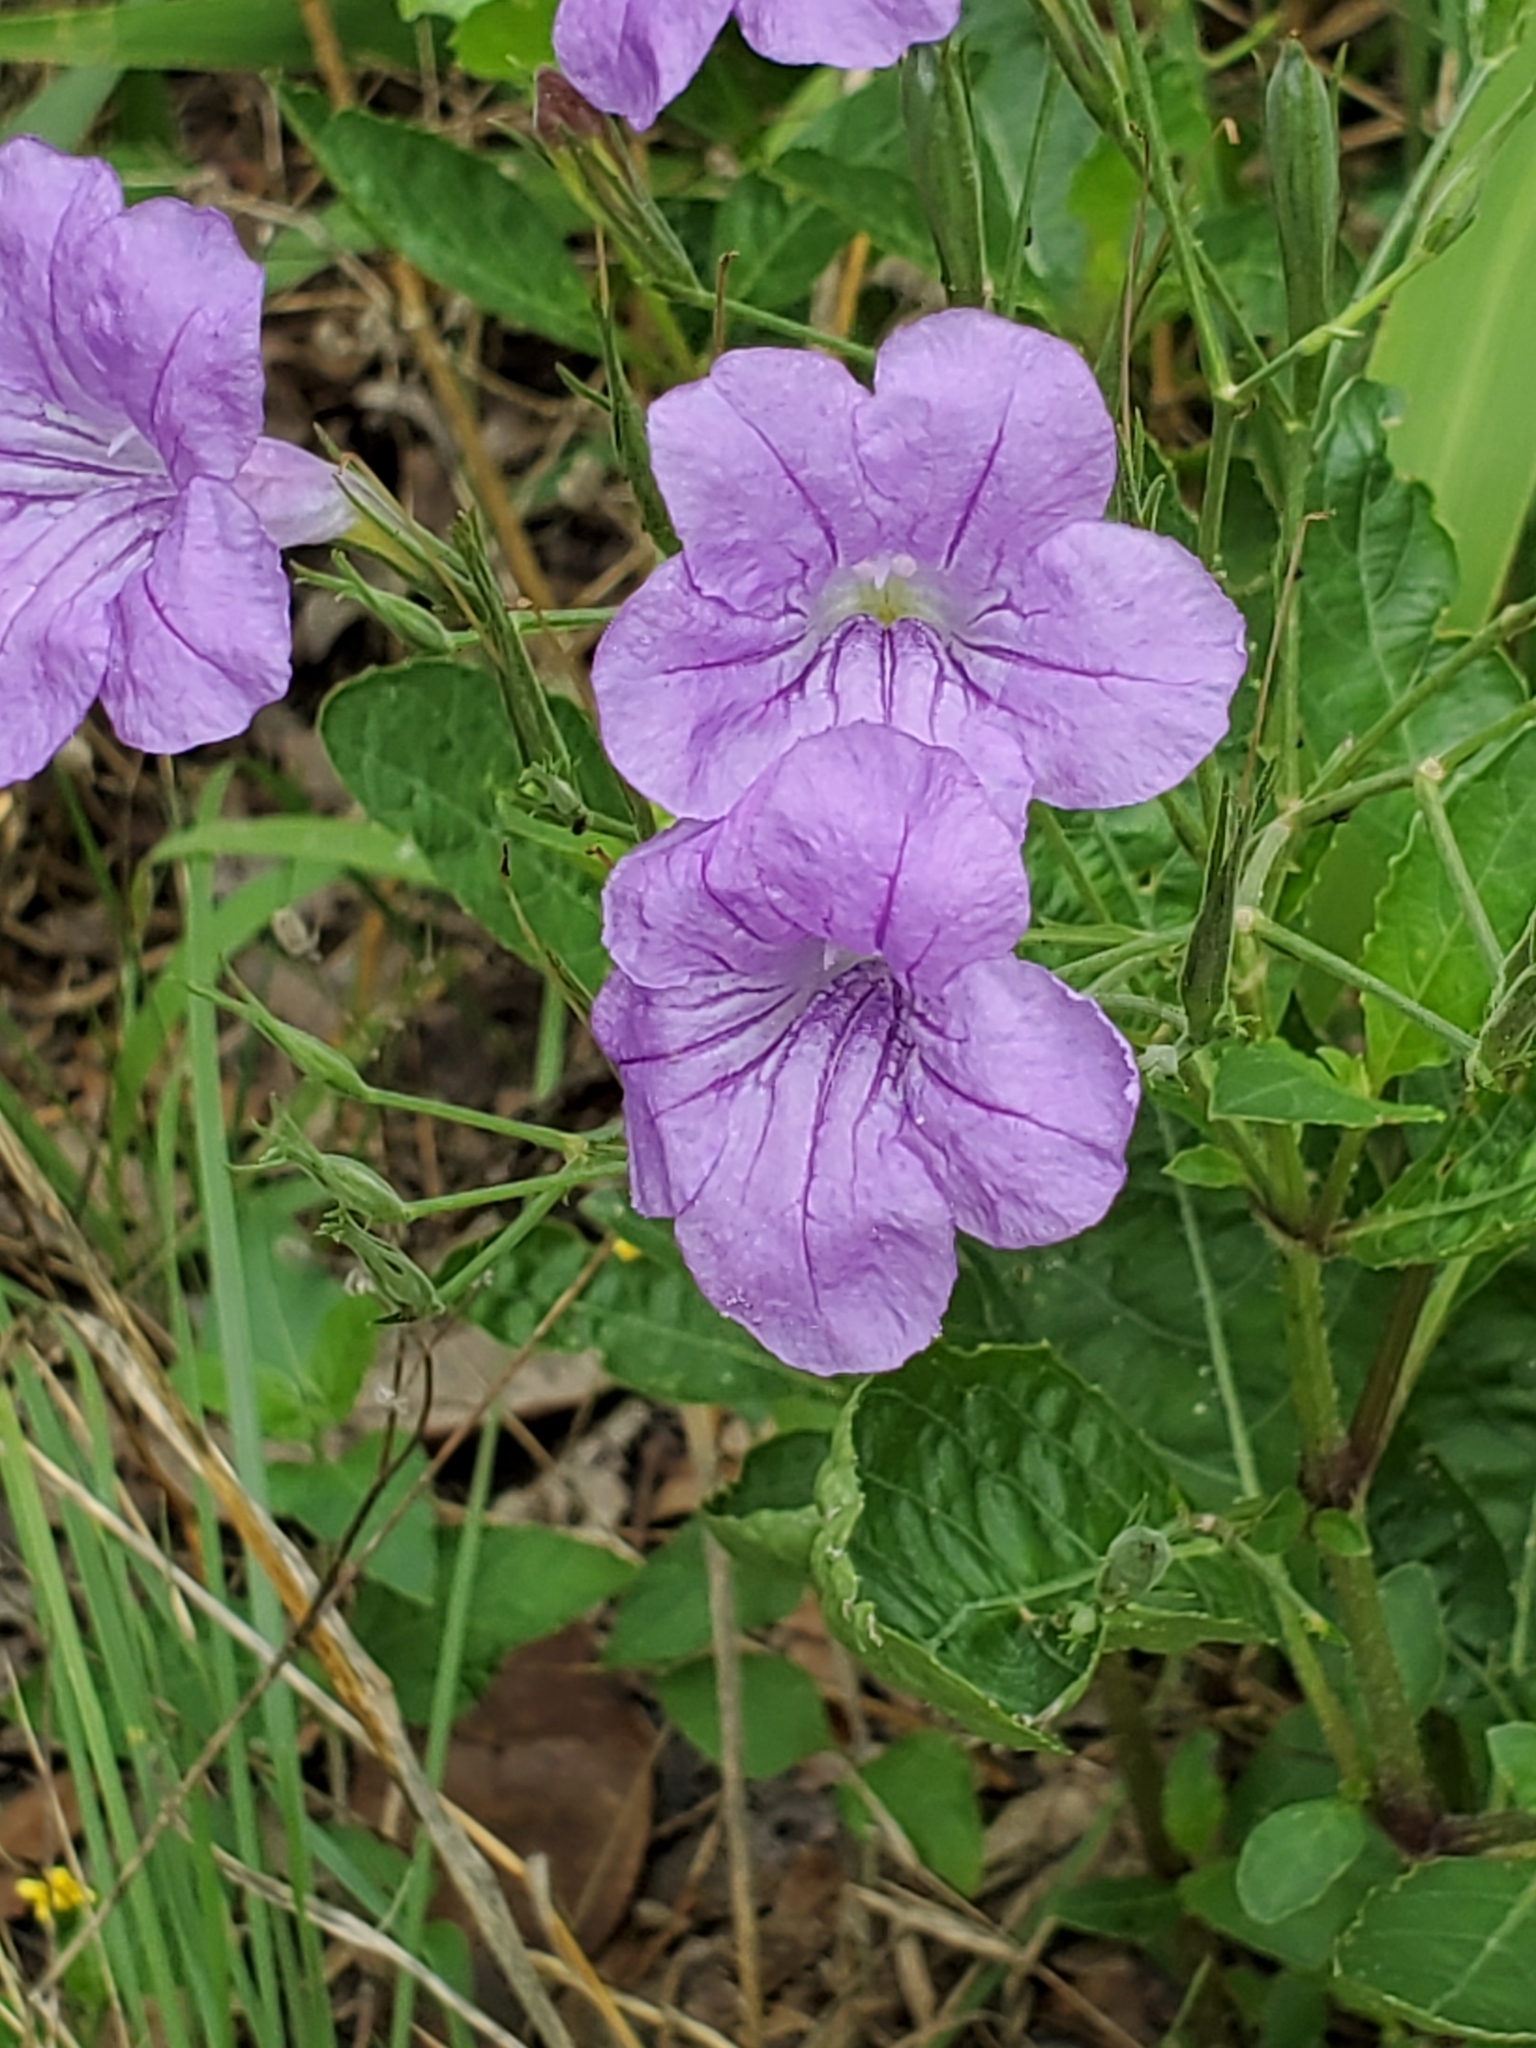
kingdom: Plantae
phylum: Tracheophyta
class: Magnoliopsida
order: Lamiales
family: Acanthaceae
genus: Ruellia
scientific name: Ruellia ciliatiflora
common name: Hairyflower wild petunia
